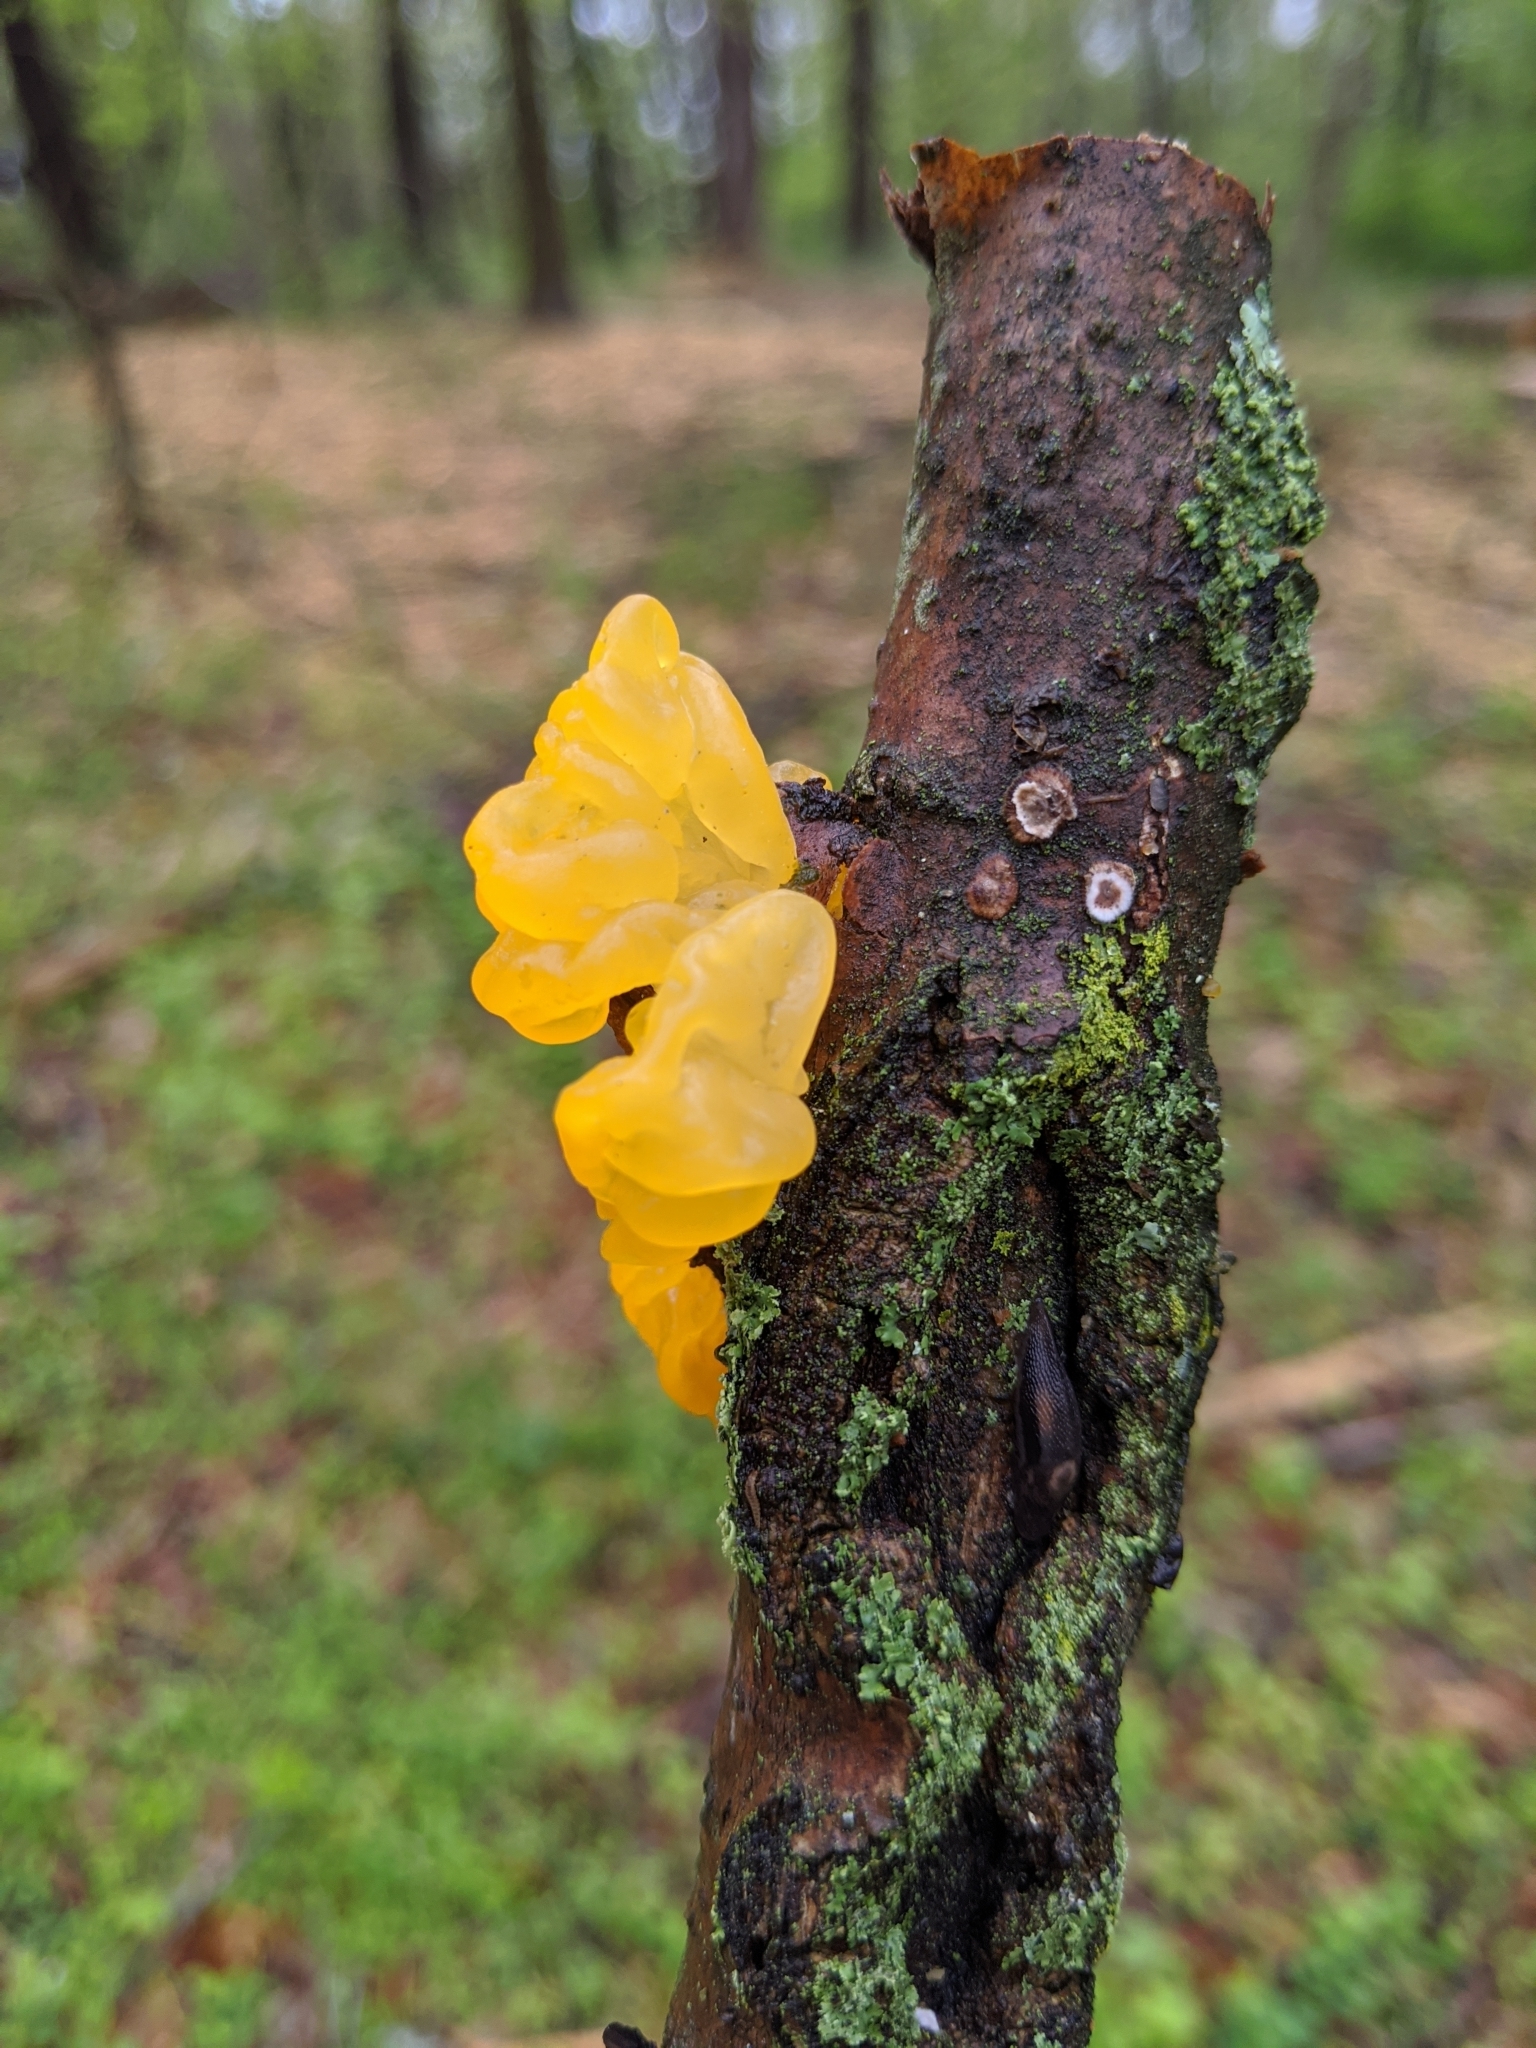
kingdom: Fungi
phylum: Basidiomycota
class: Tremellomycetes
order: Tremellales
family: Tremellaceae
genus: Tremella
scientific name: Tremella mesenterica
